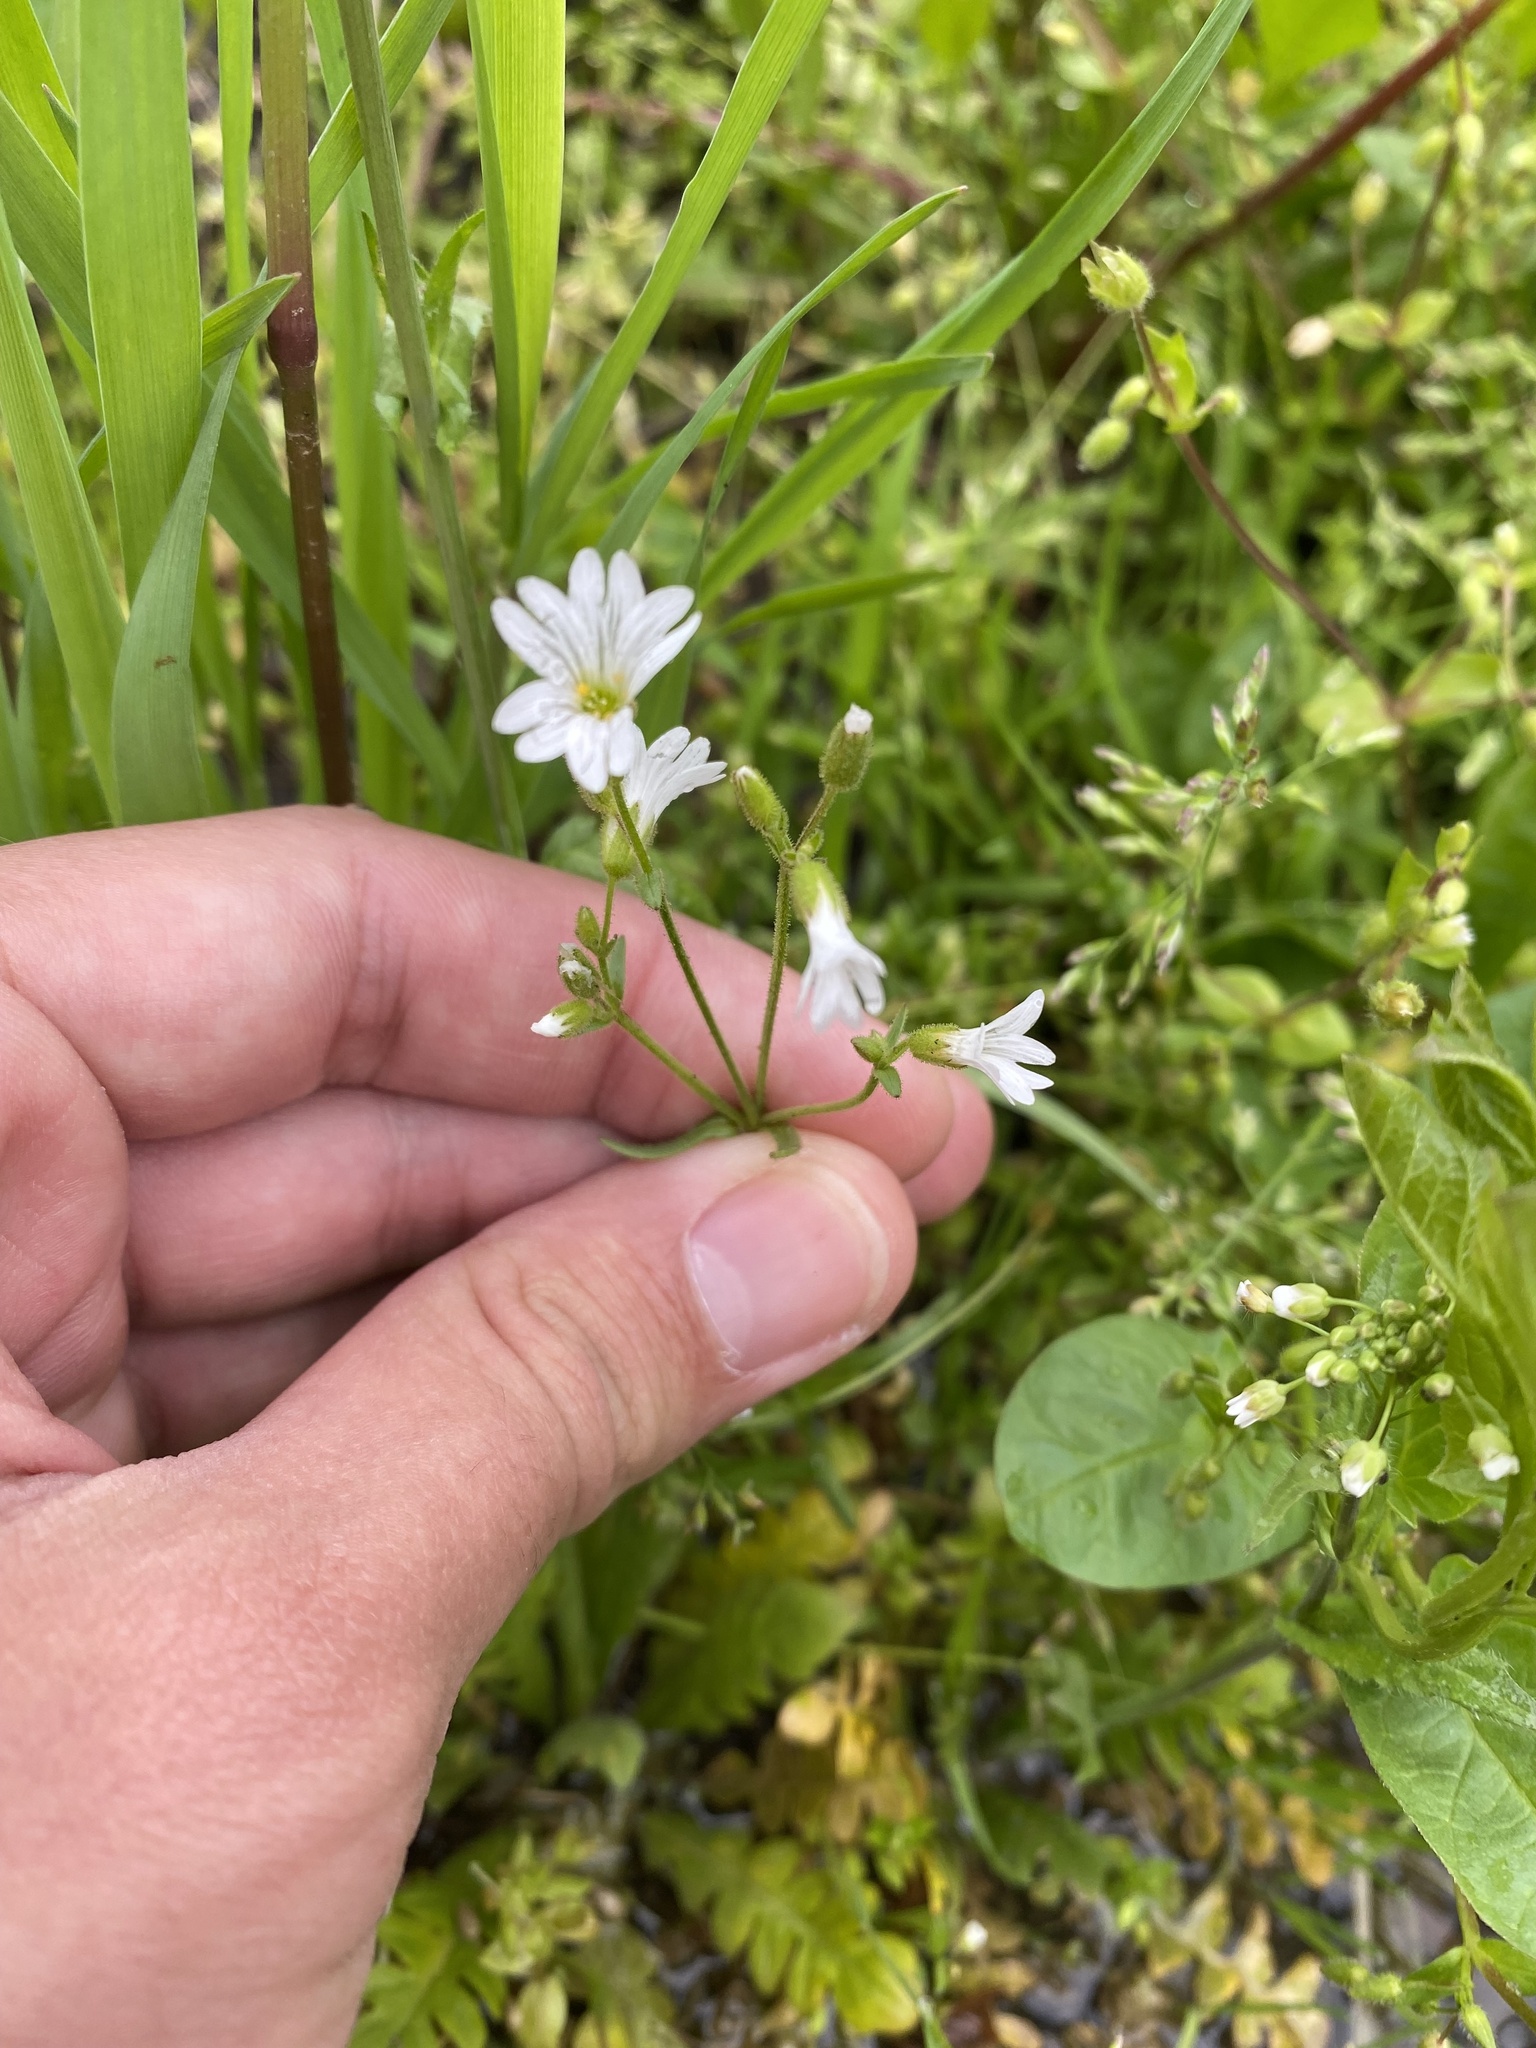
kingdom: Plantae
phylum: Tracheophyta
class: Magnoliopsida
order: Caryophyllales
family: Caryophyllaceae
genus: Dichodon
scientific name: Dichodon viscidum
